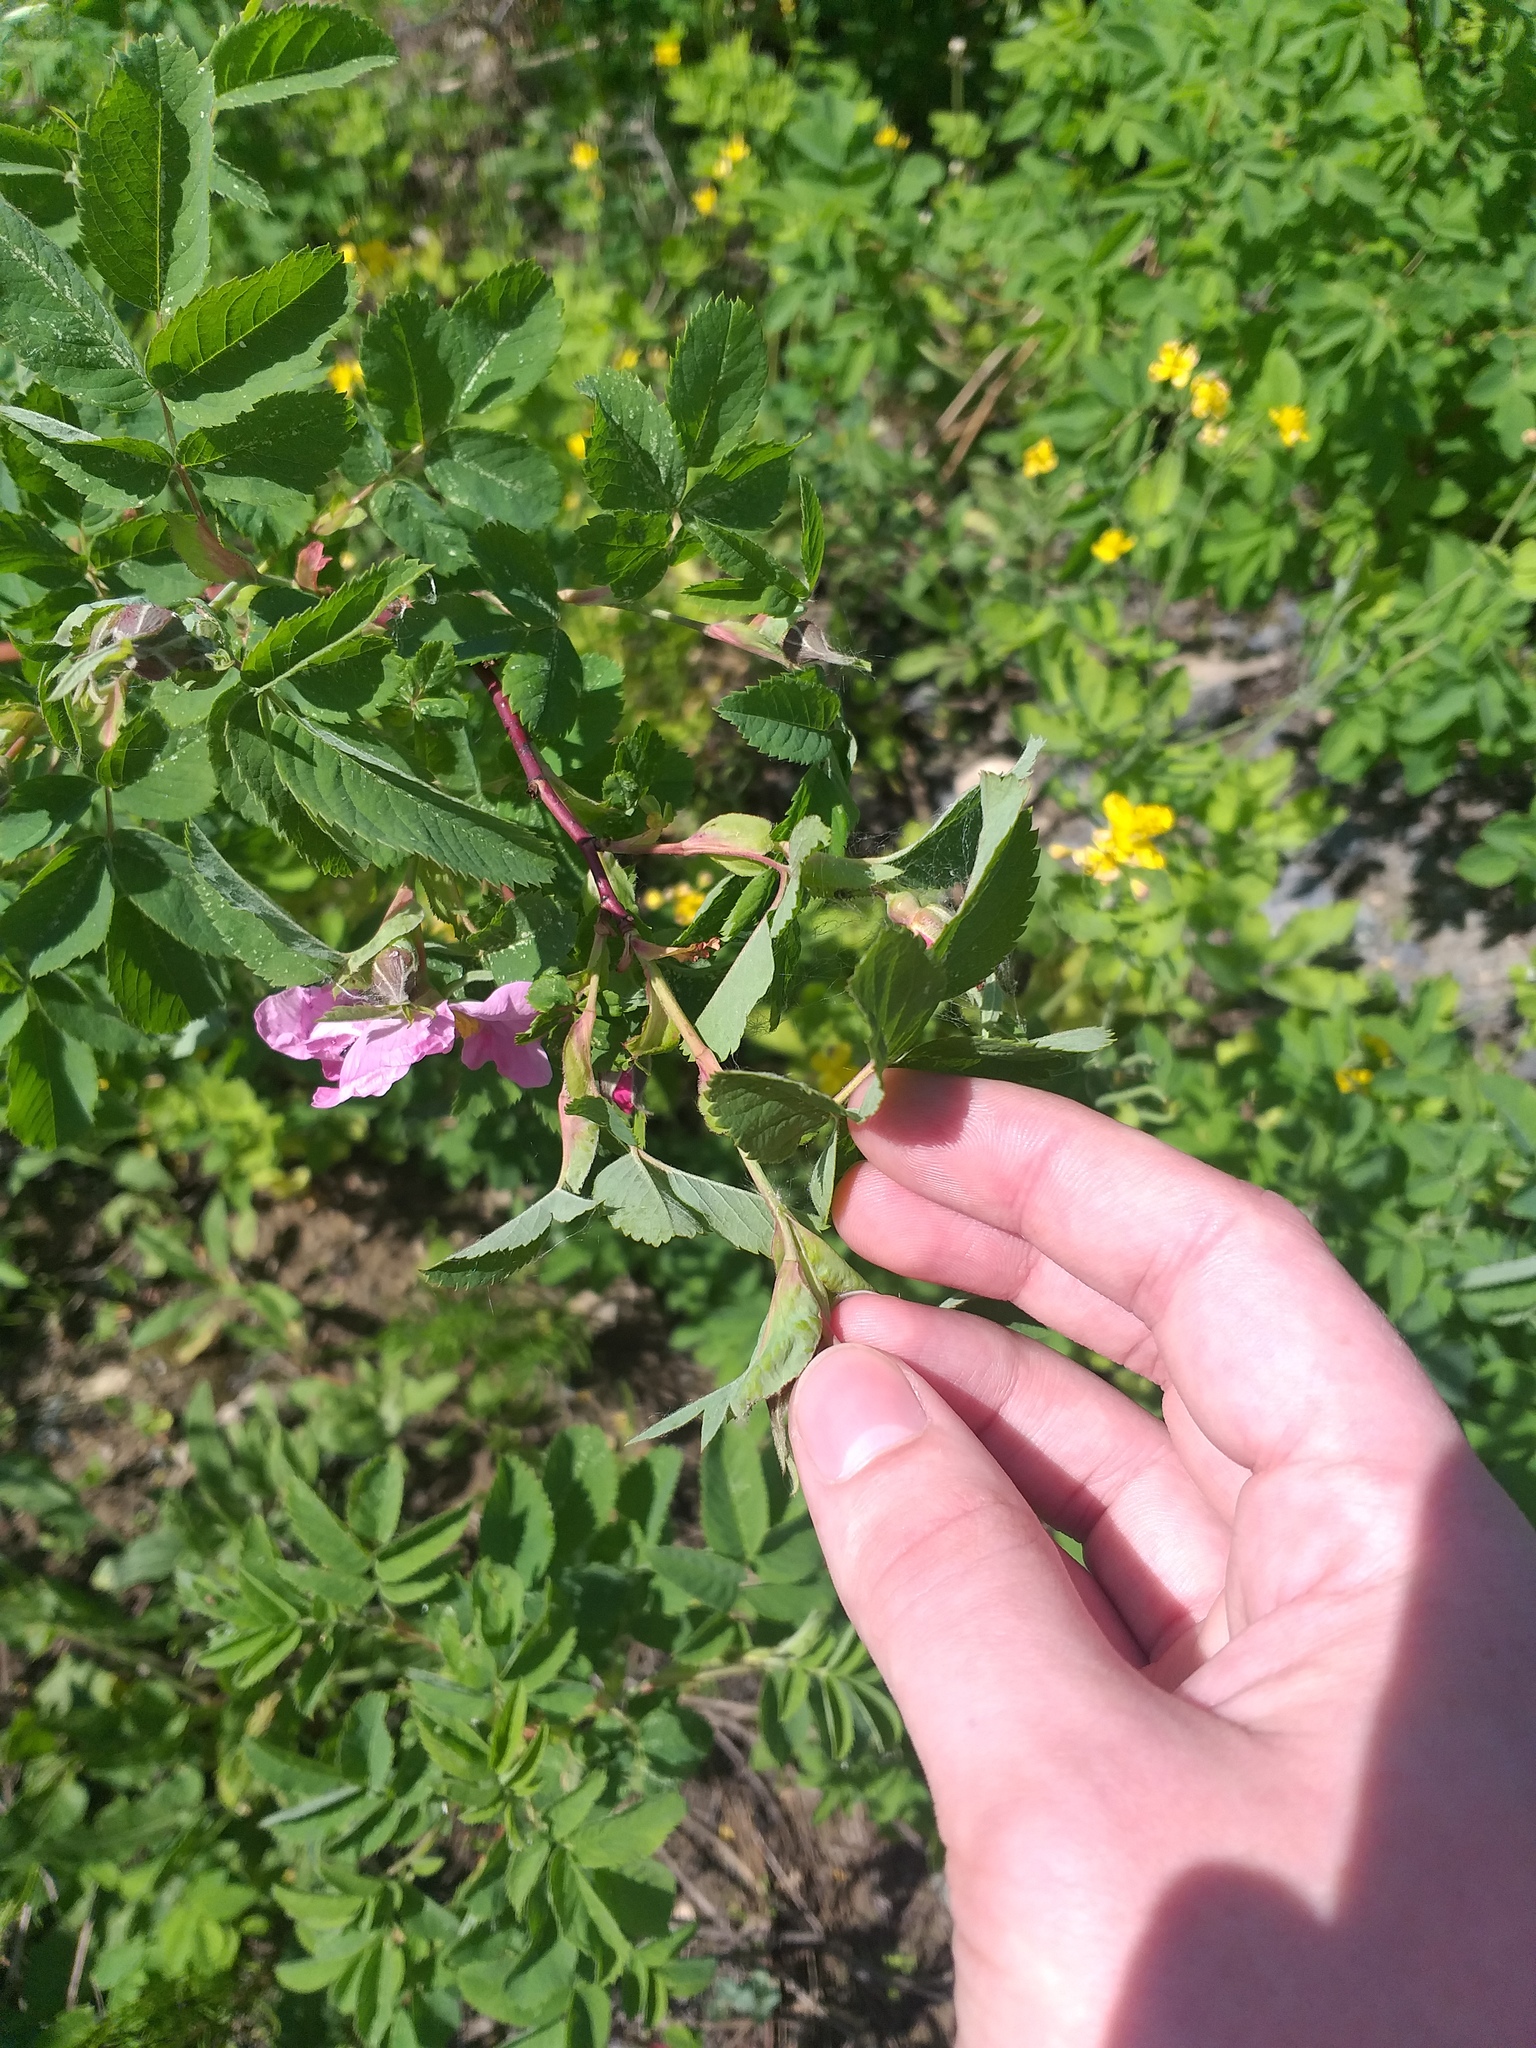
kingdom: Plantae
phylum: Tracheophyta
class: Magnoliopsida
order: Rosales
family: Rosaceae
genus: Rosa
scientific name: Rosa glabrifolia
